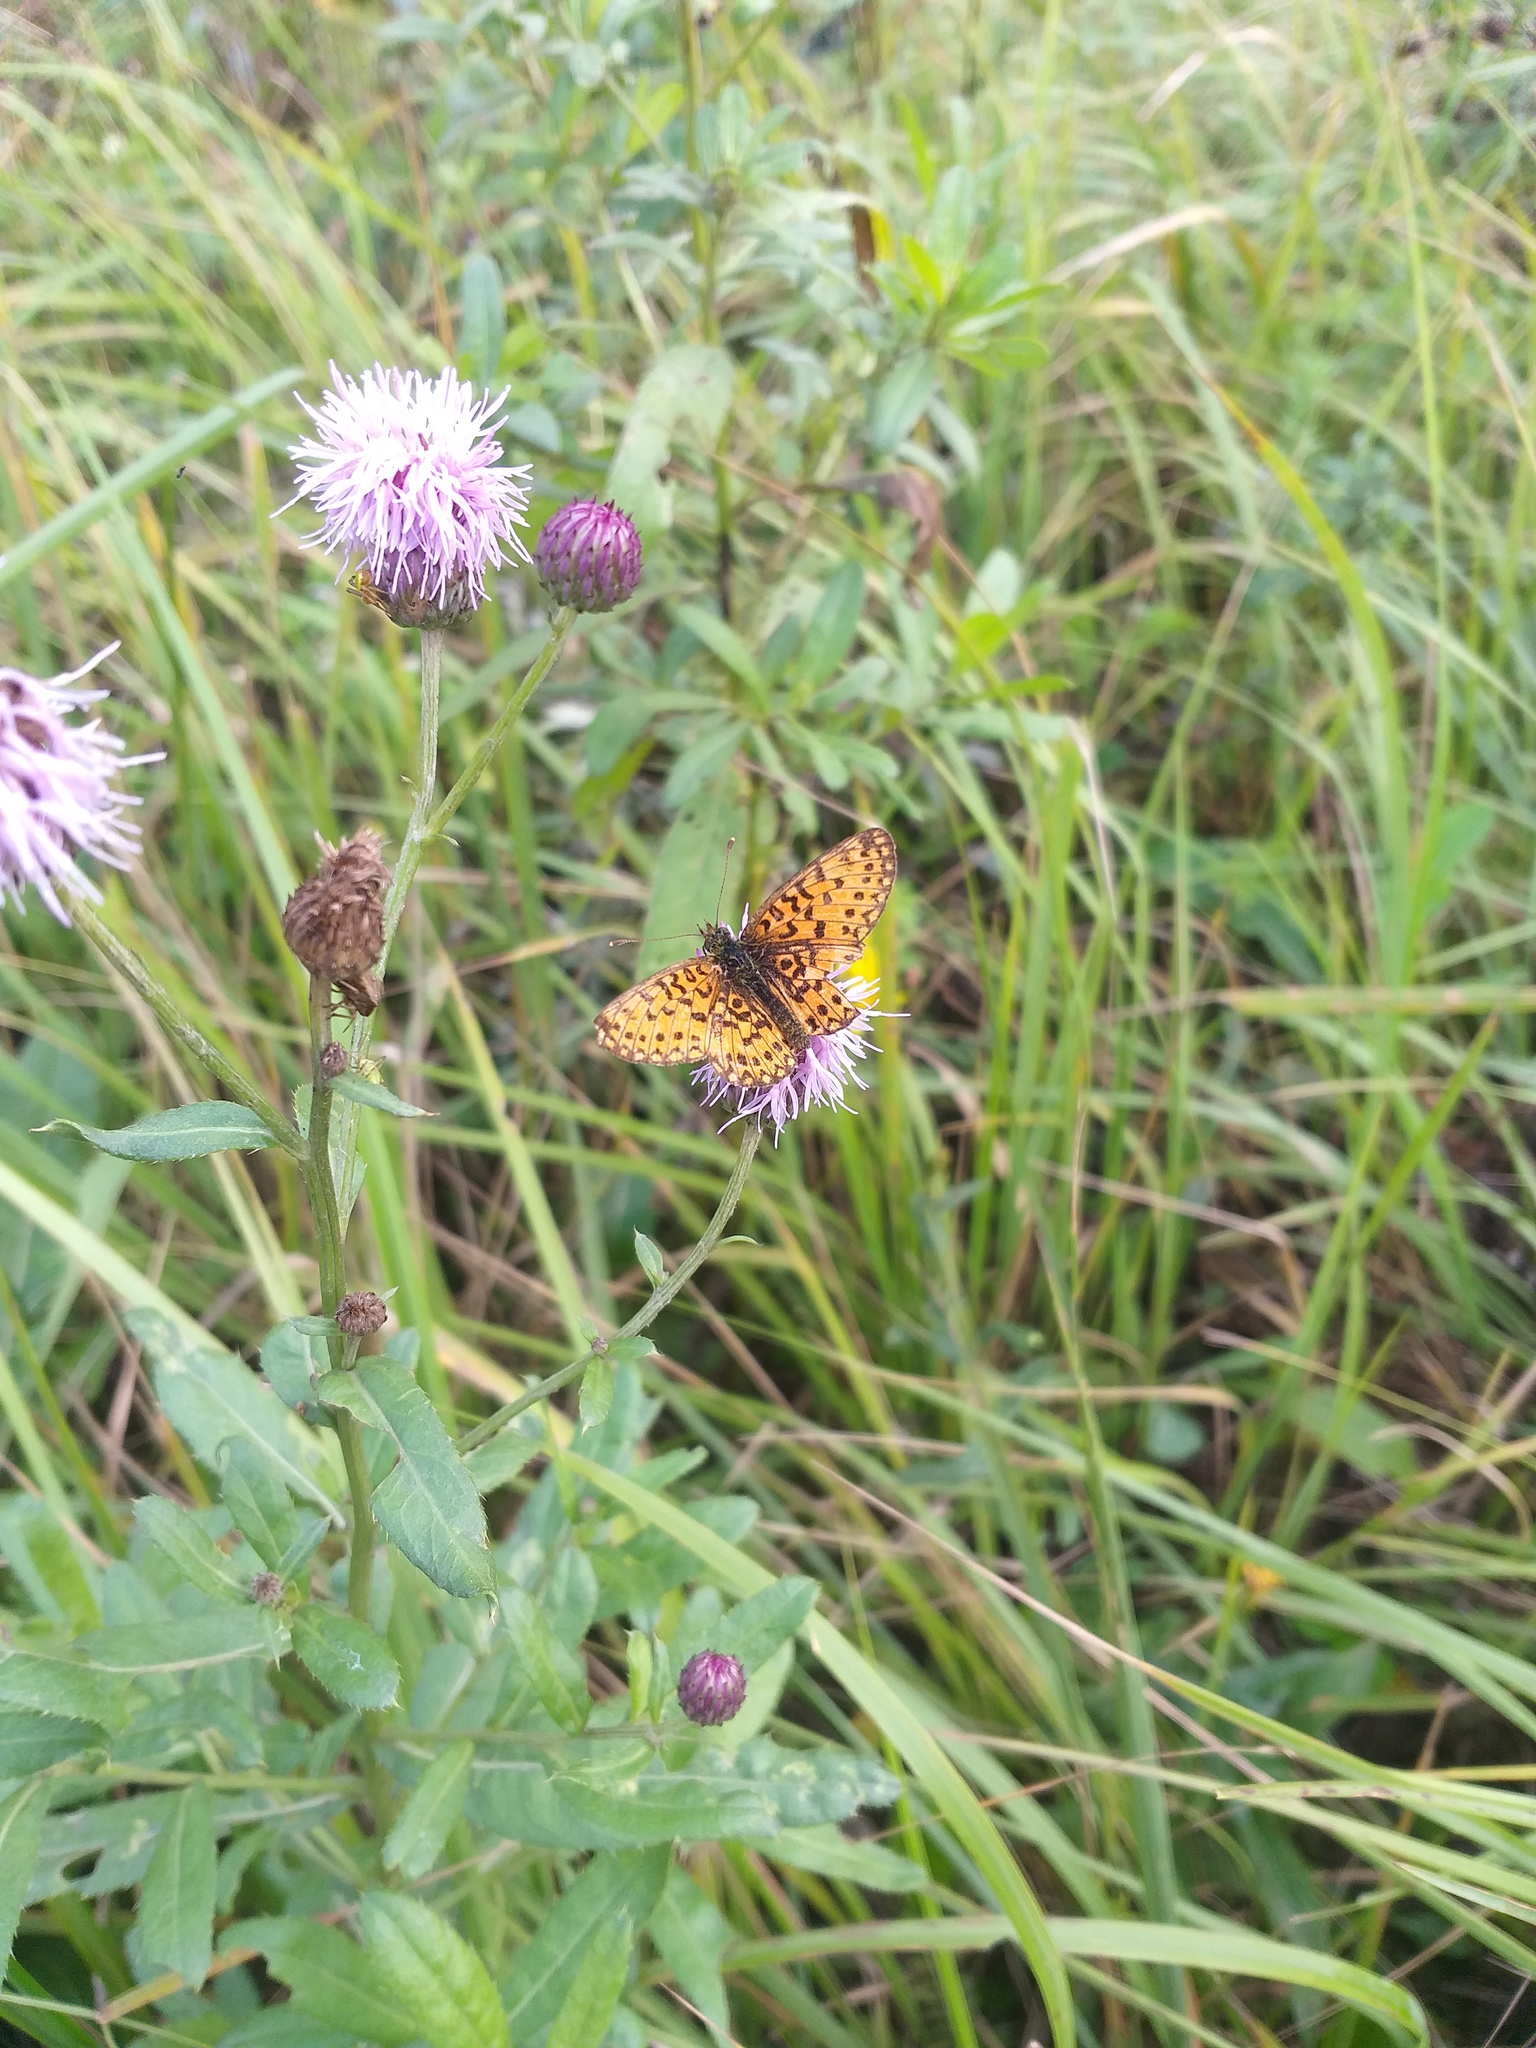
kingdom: Animalia
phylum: Arthropoda
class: Insecta
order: Lepidoptera
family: Nymphalidae
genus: Boloria
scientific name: Boloria selene
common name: Small pearl-bordered fritillary
